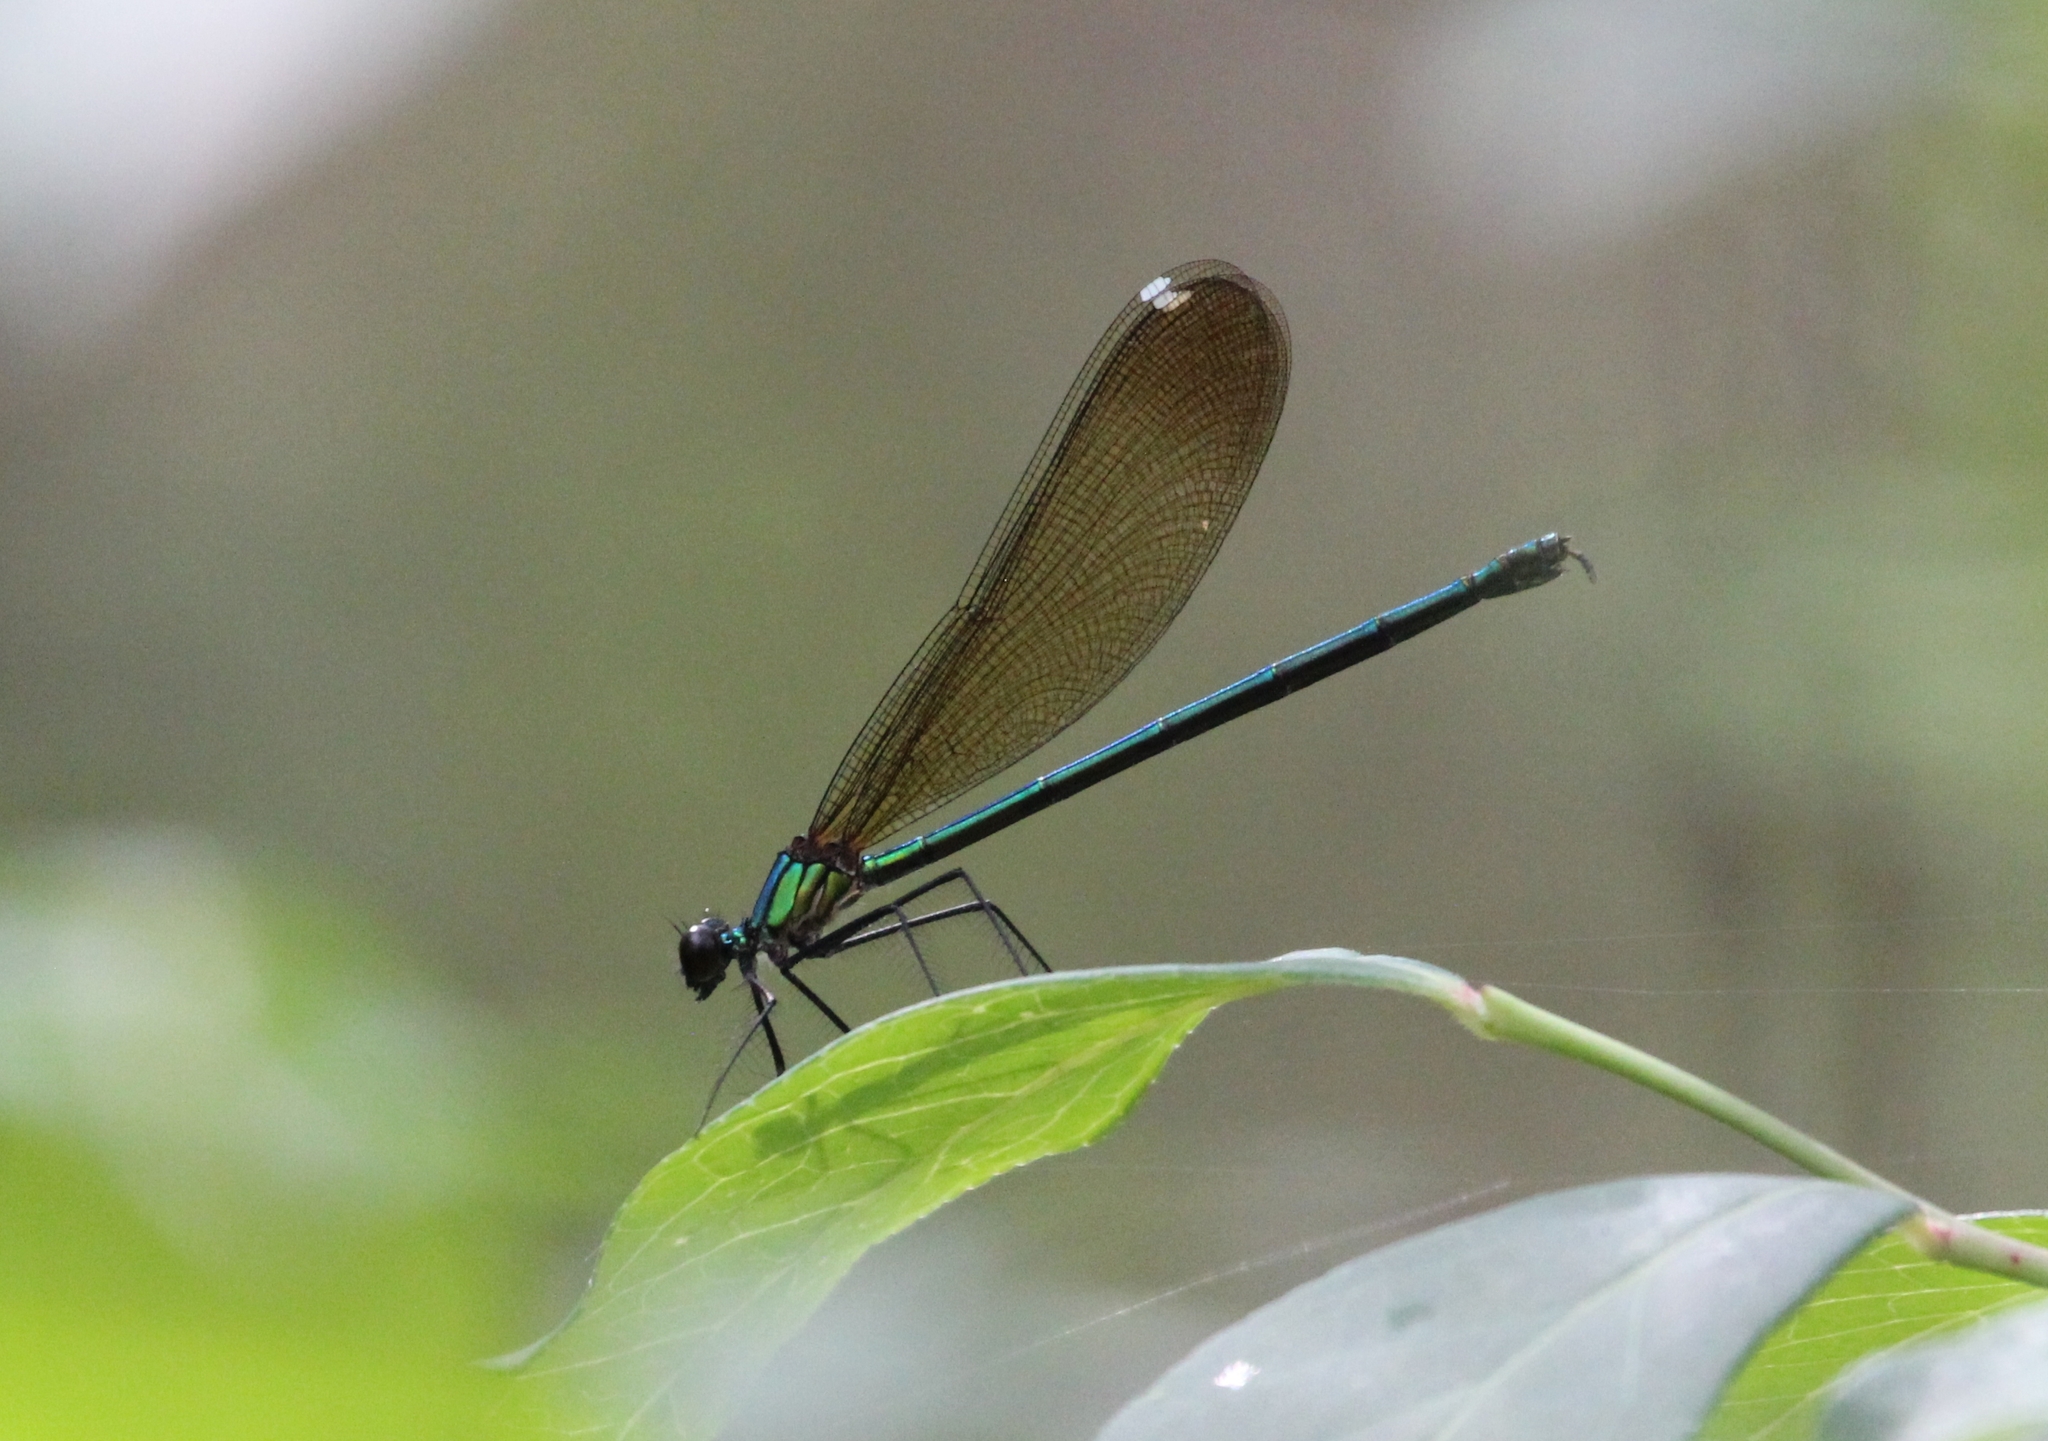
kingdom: Animalia
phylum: Arthropoda
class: Insecta
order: Odonata
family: Calopterygidae
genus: Calopteryx
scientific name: Calopteryx dimidiata
